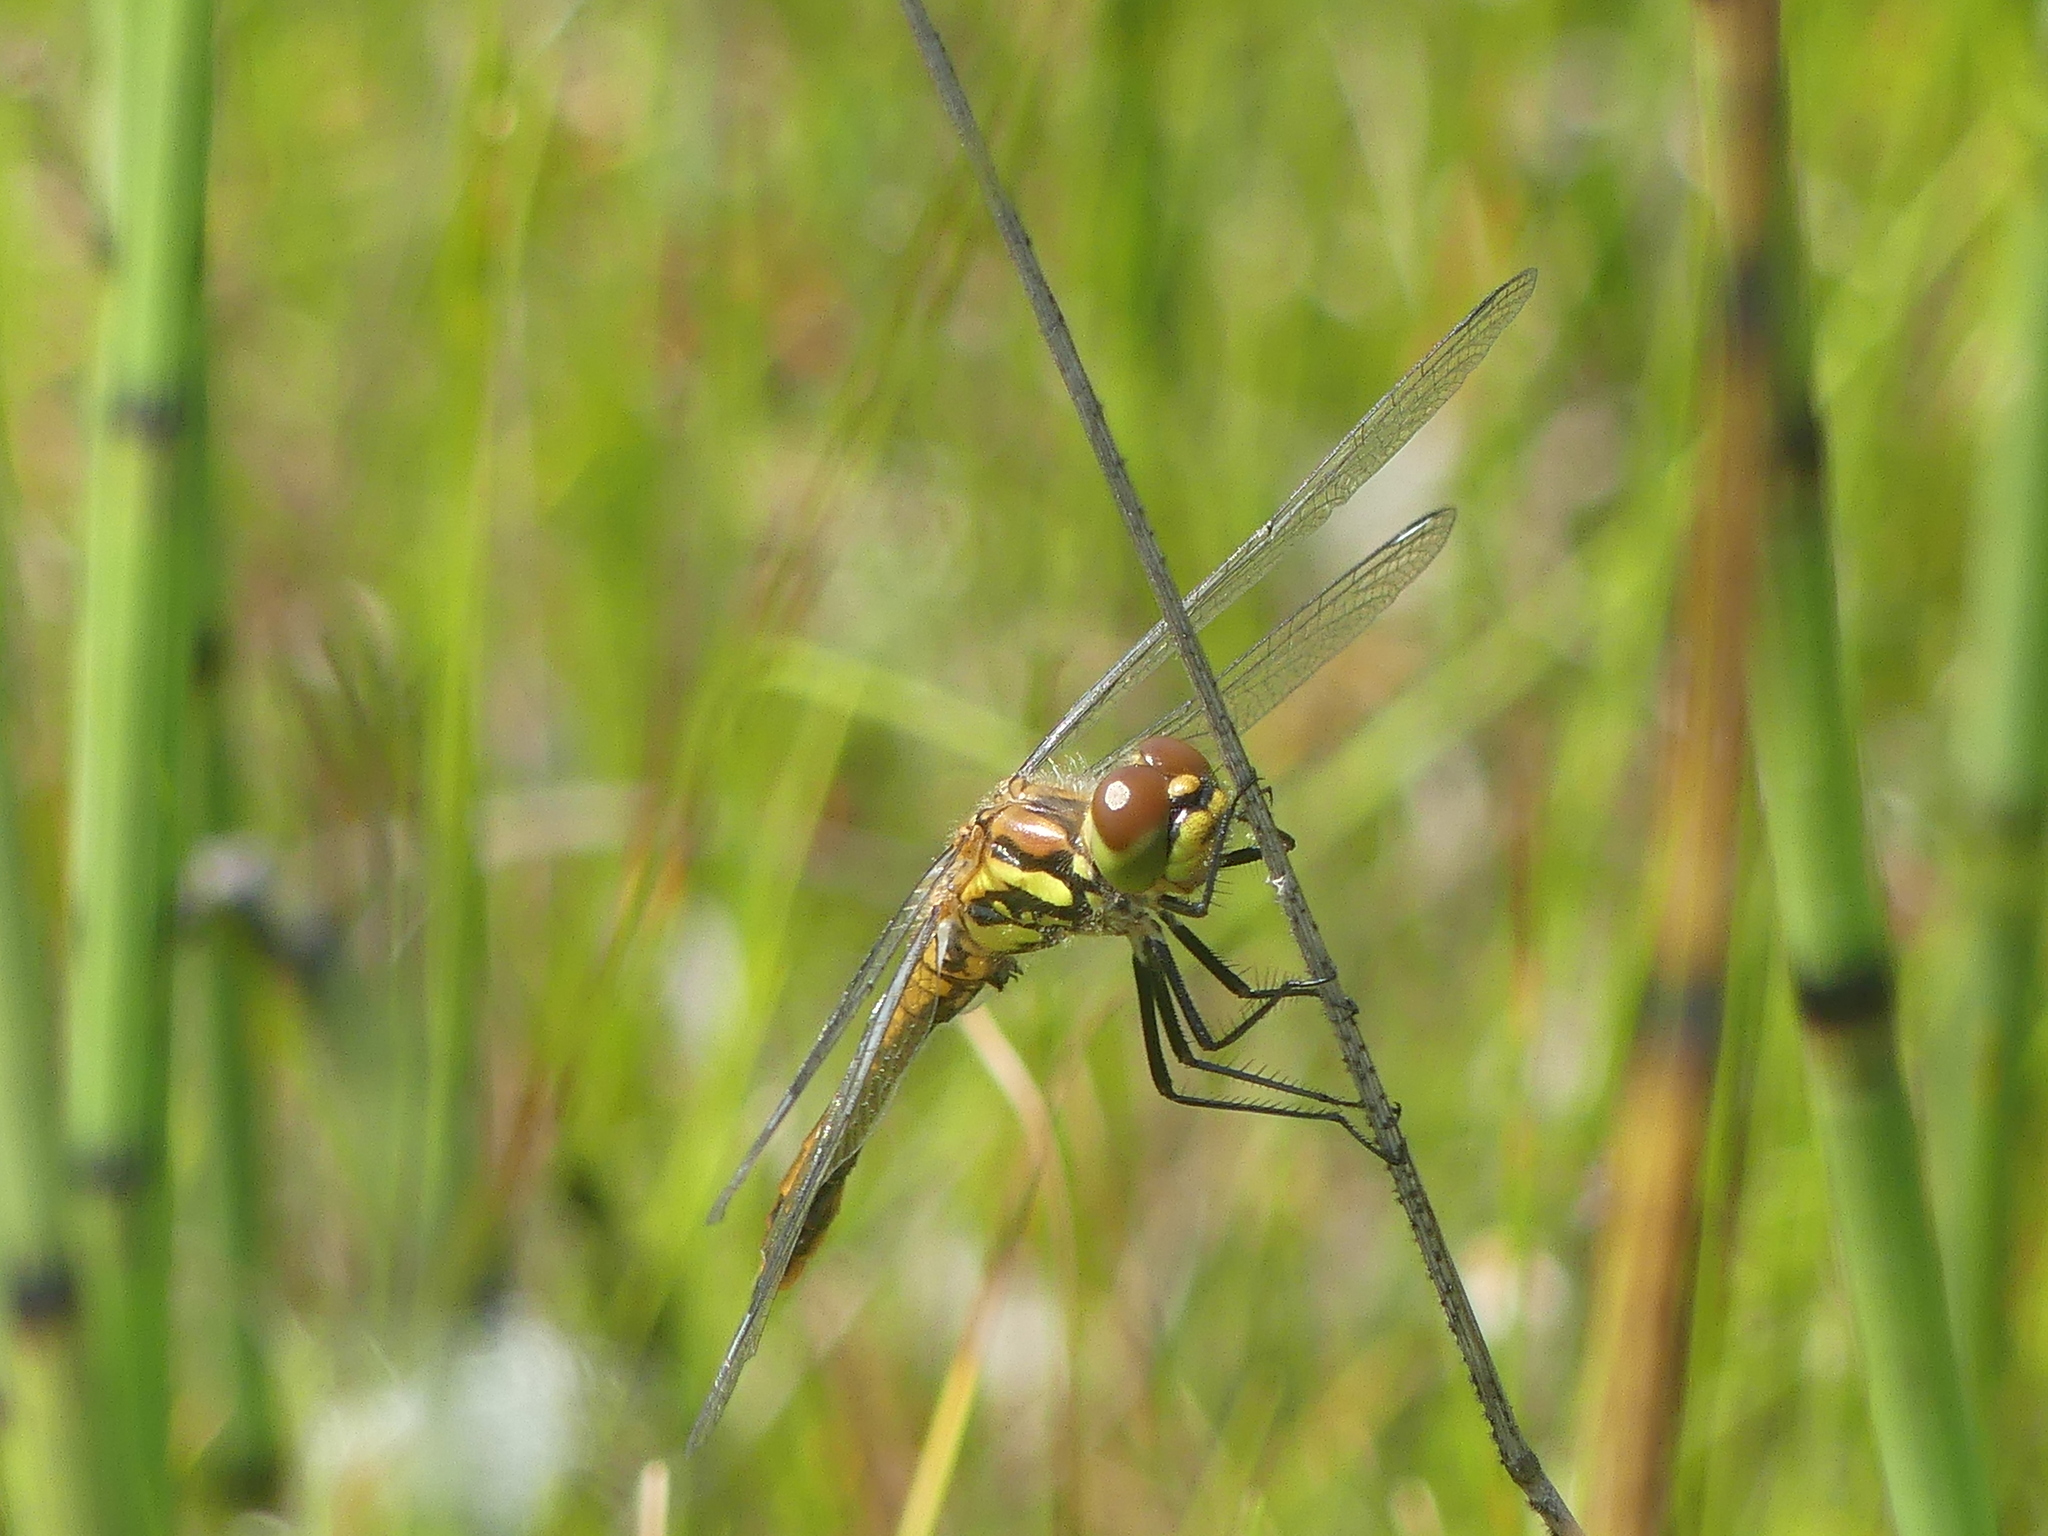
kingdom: Animalia
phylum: Arthropoda
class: Insecta
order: Odonata
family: Libellulidae
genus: Sympetrum
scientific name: Sympetrum danae
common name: Black darter
